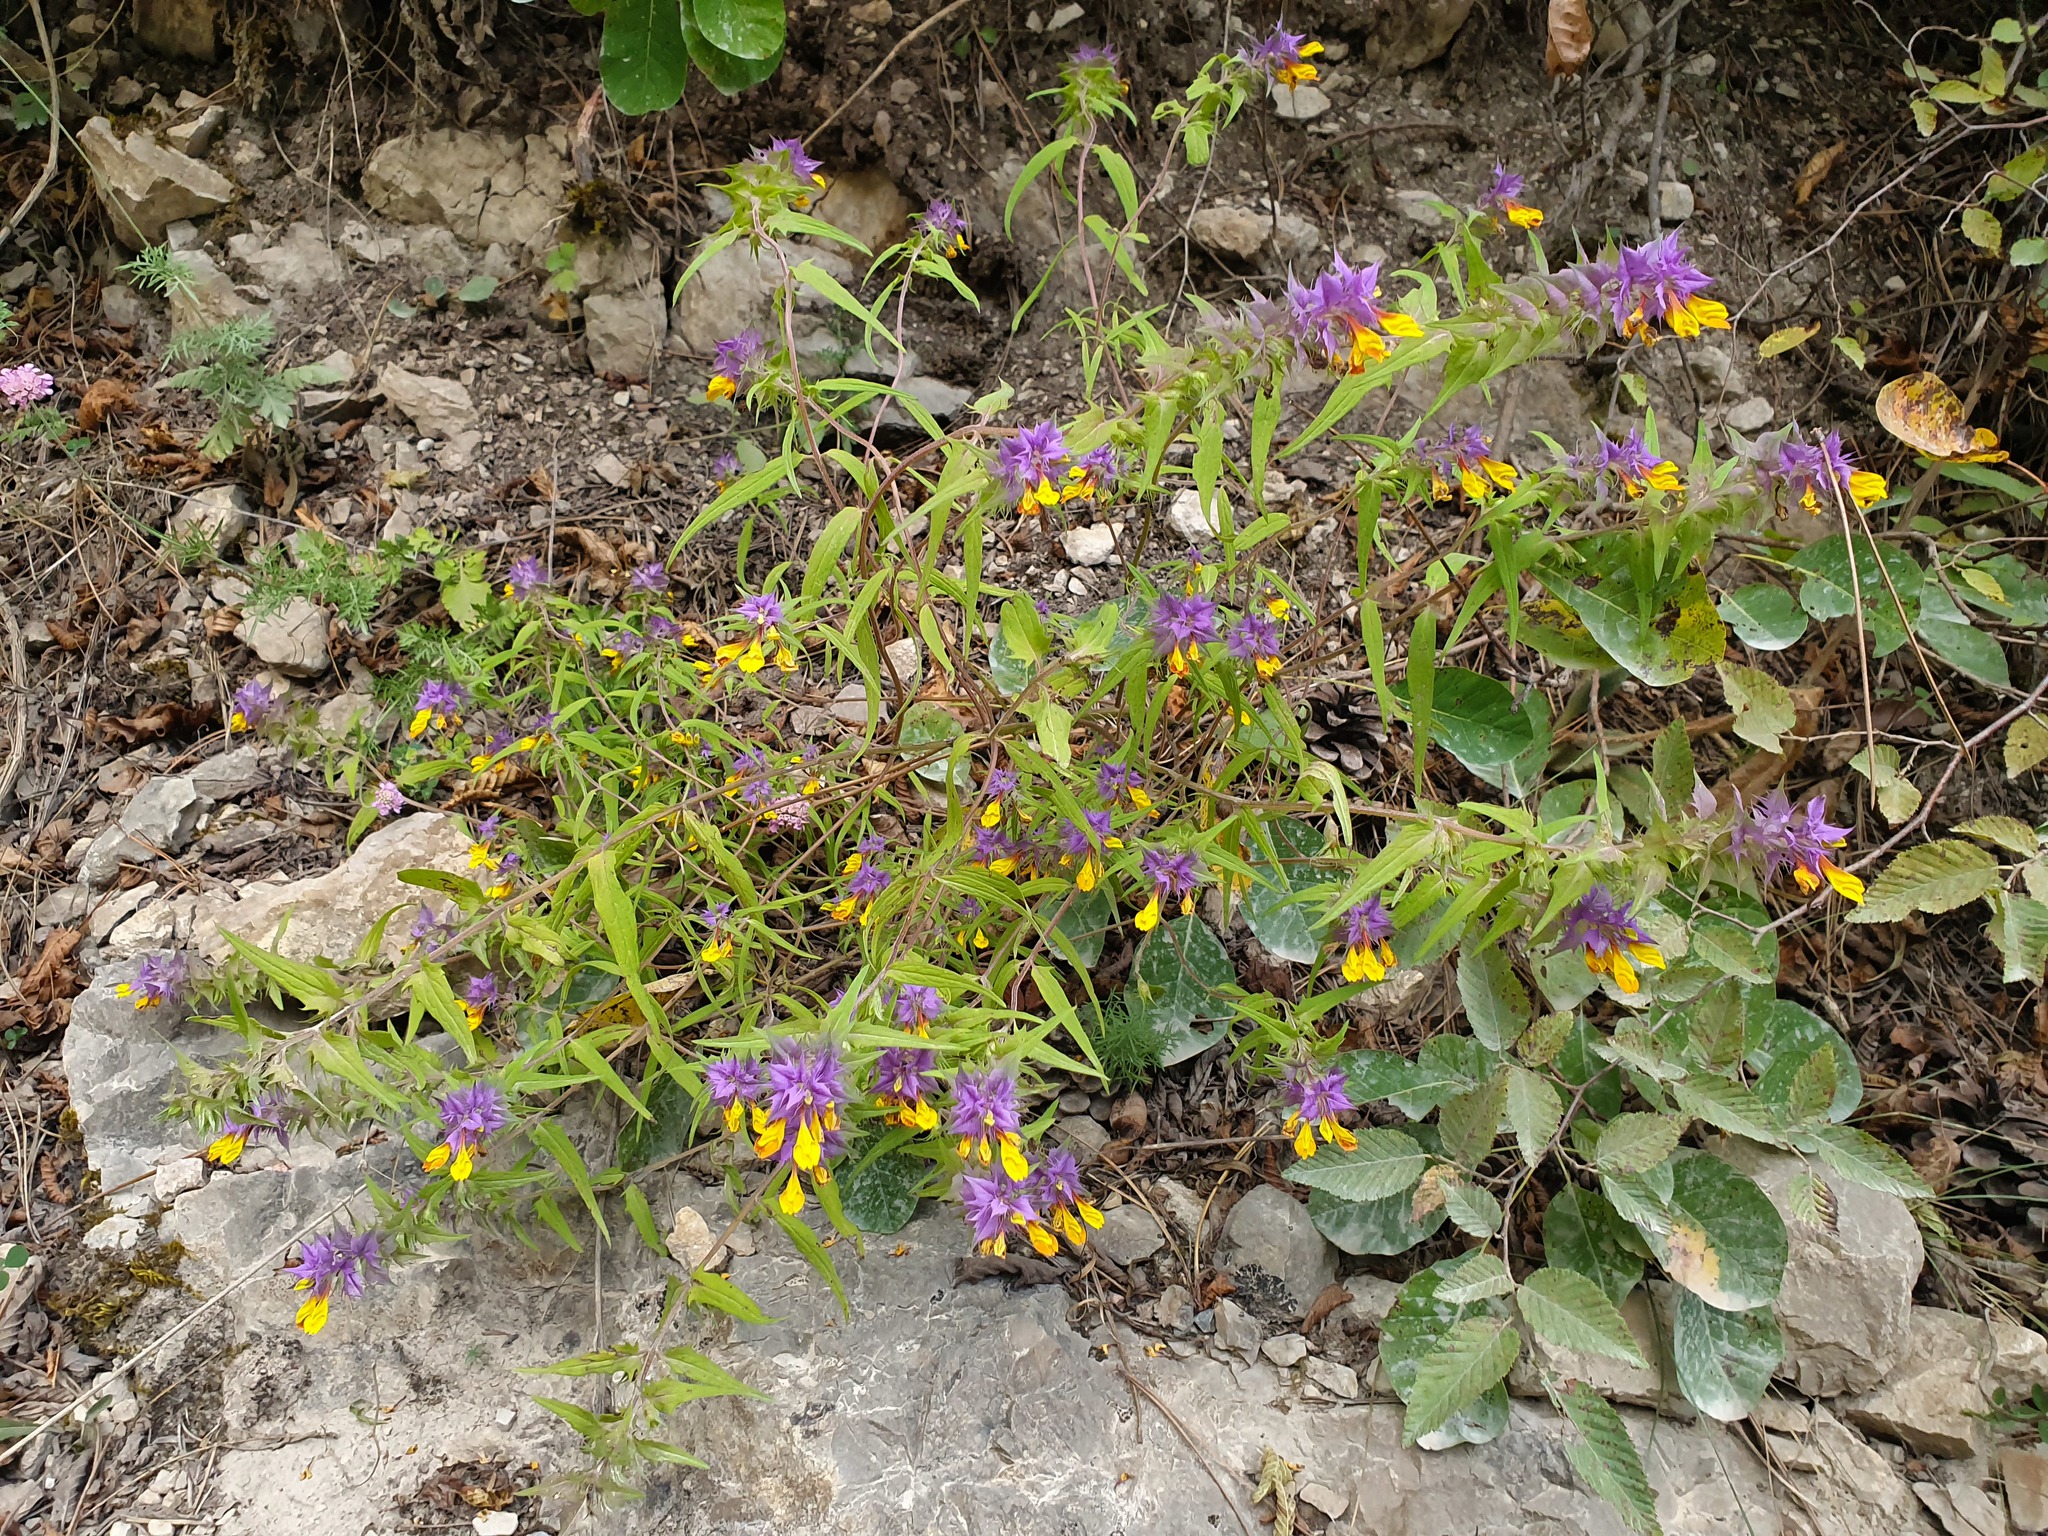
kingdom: Plantae
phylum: Tracheophyta
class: Magnoliopsida
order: Lamiales
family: Orobanchaceae
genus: Melampyrum
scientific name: Melampyrum nemorosum
